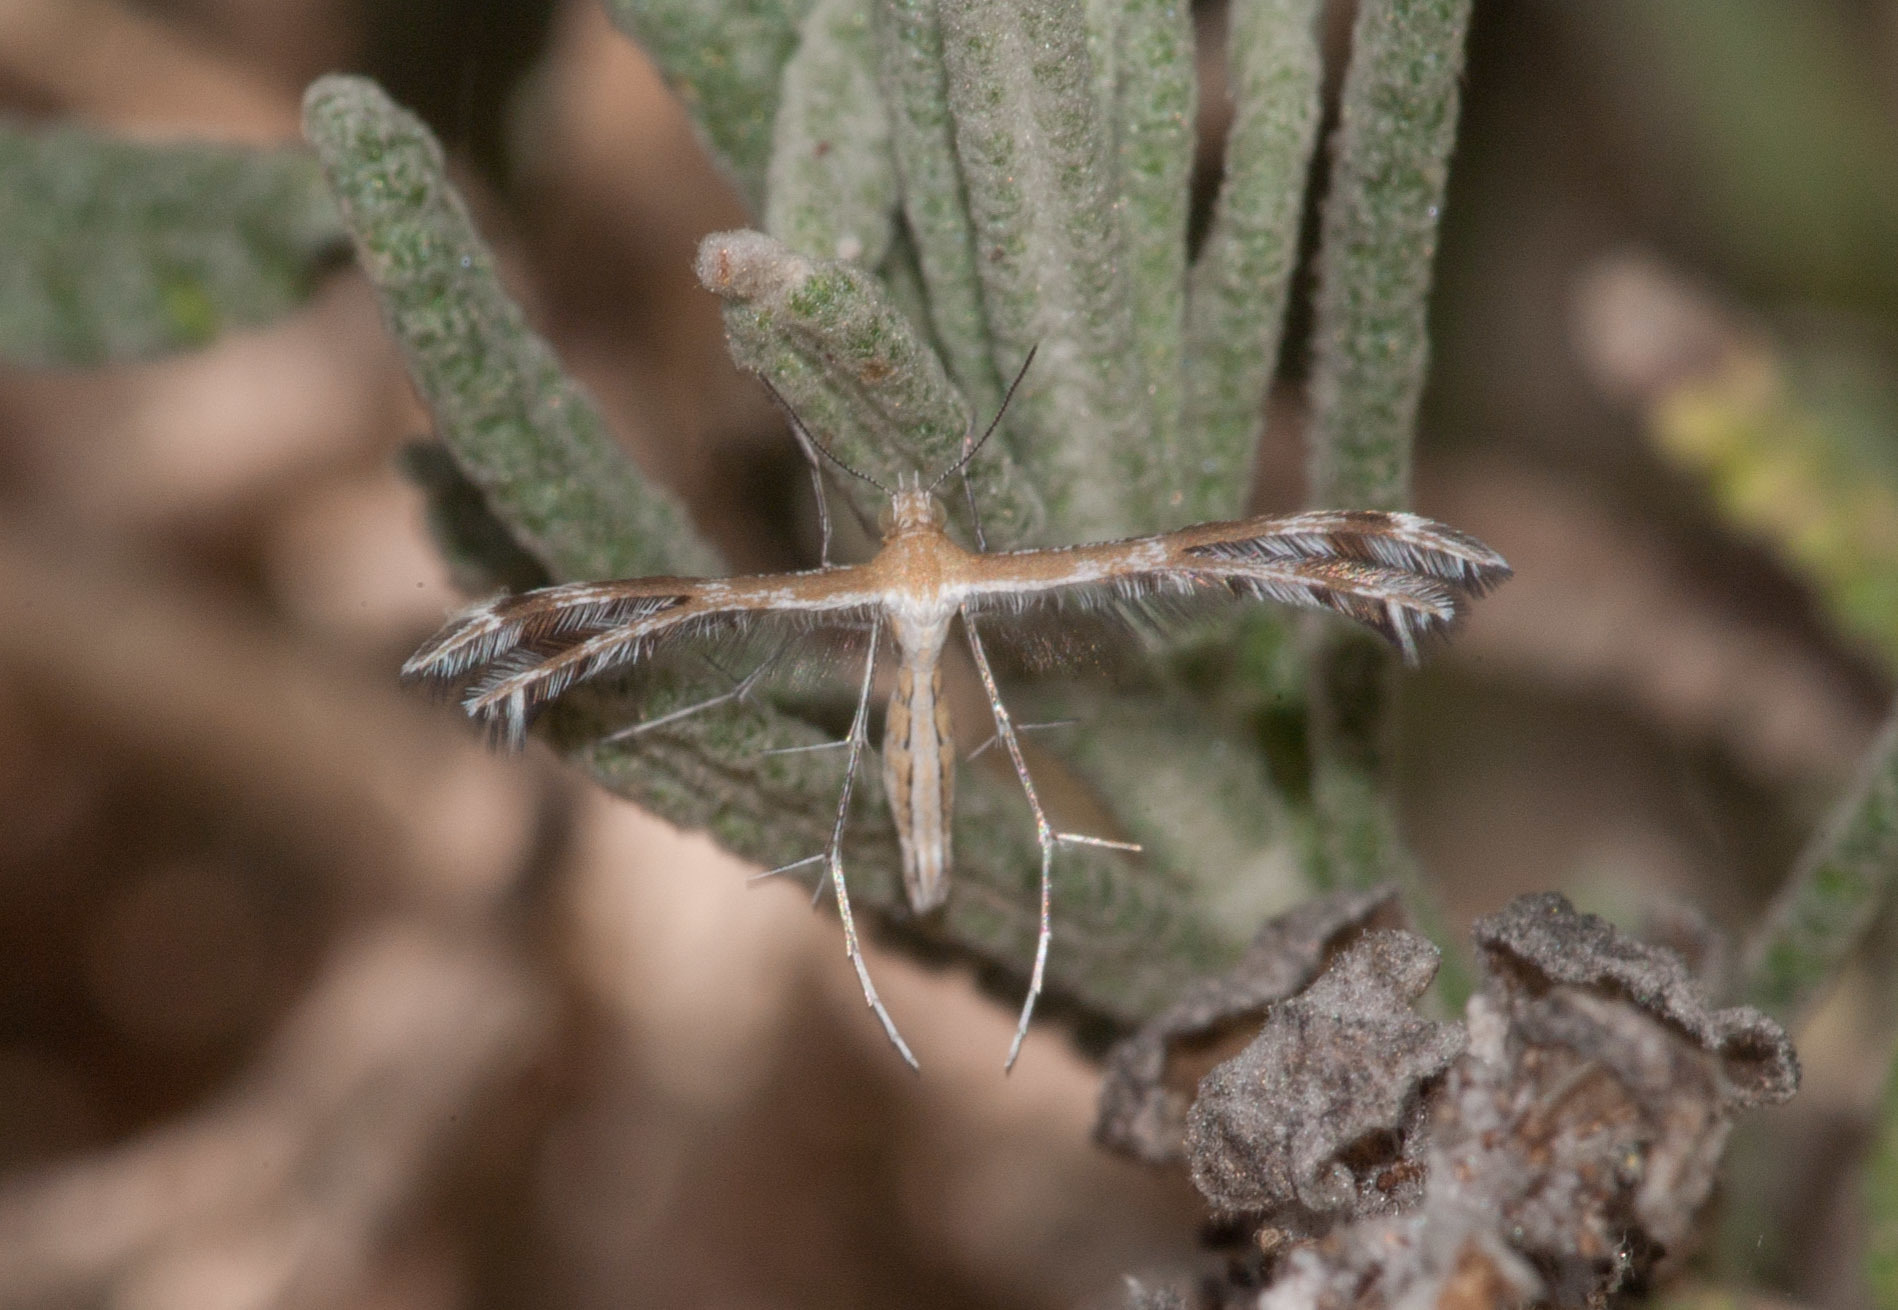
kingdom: Animalia
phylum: Arthropoda
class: Insecta
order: Lepidoptera
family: Pterophoridae
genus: Stangeia
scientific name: Stangeia xerodes
